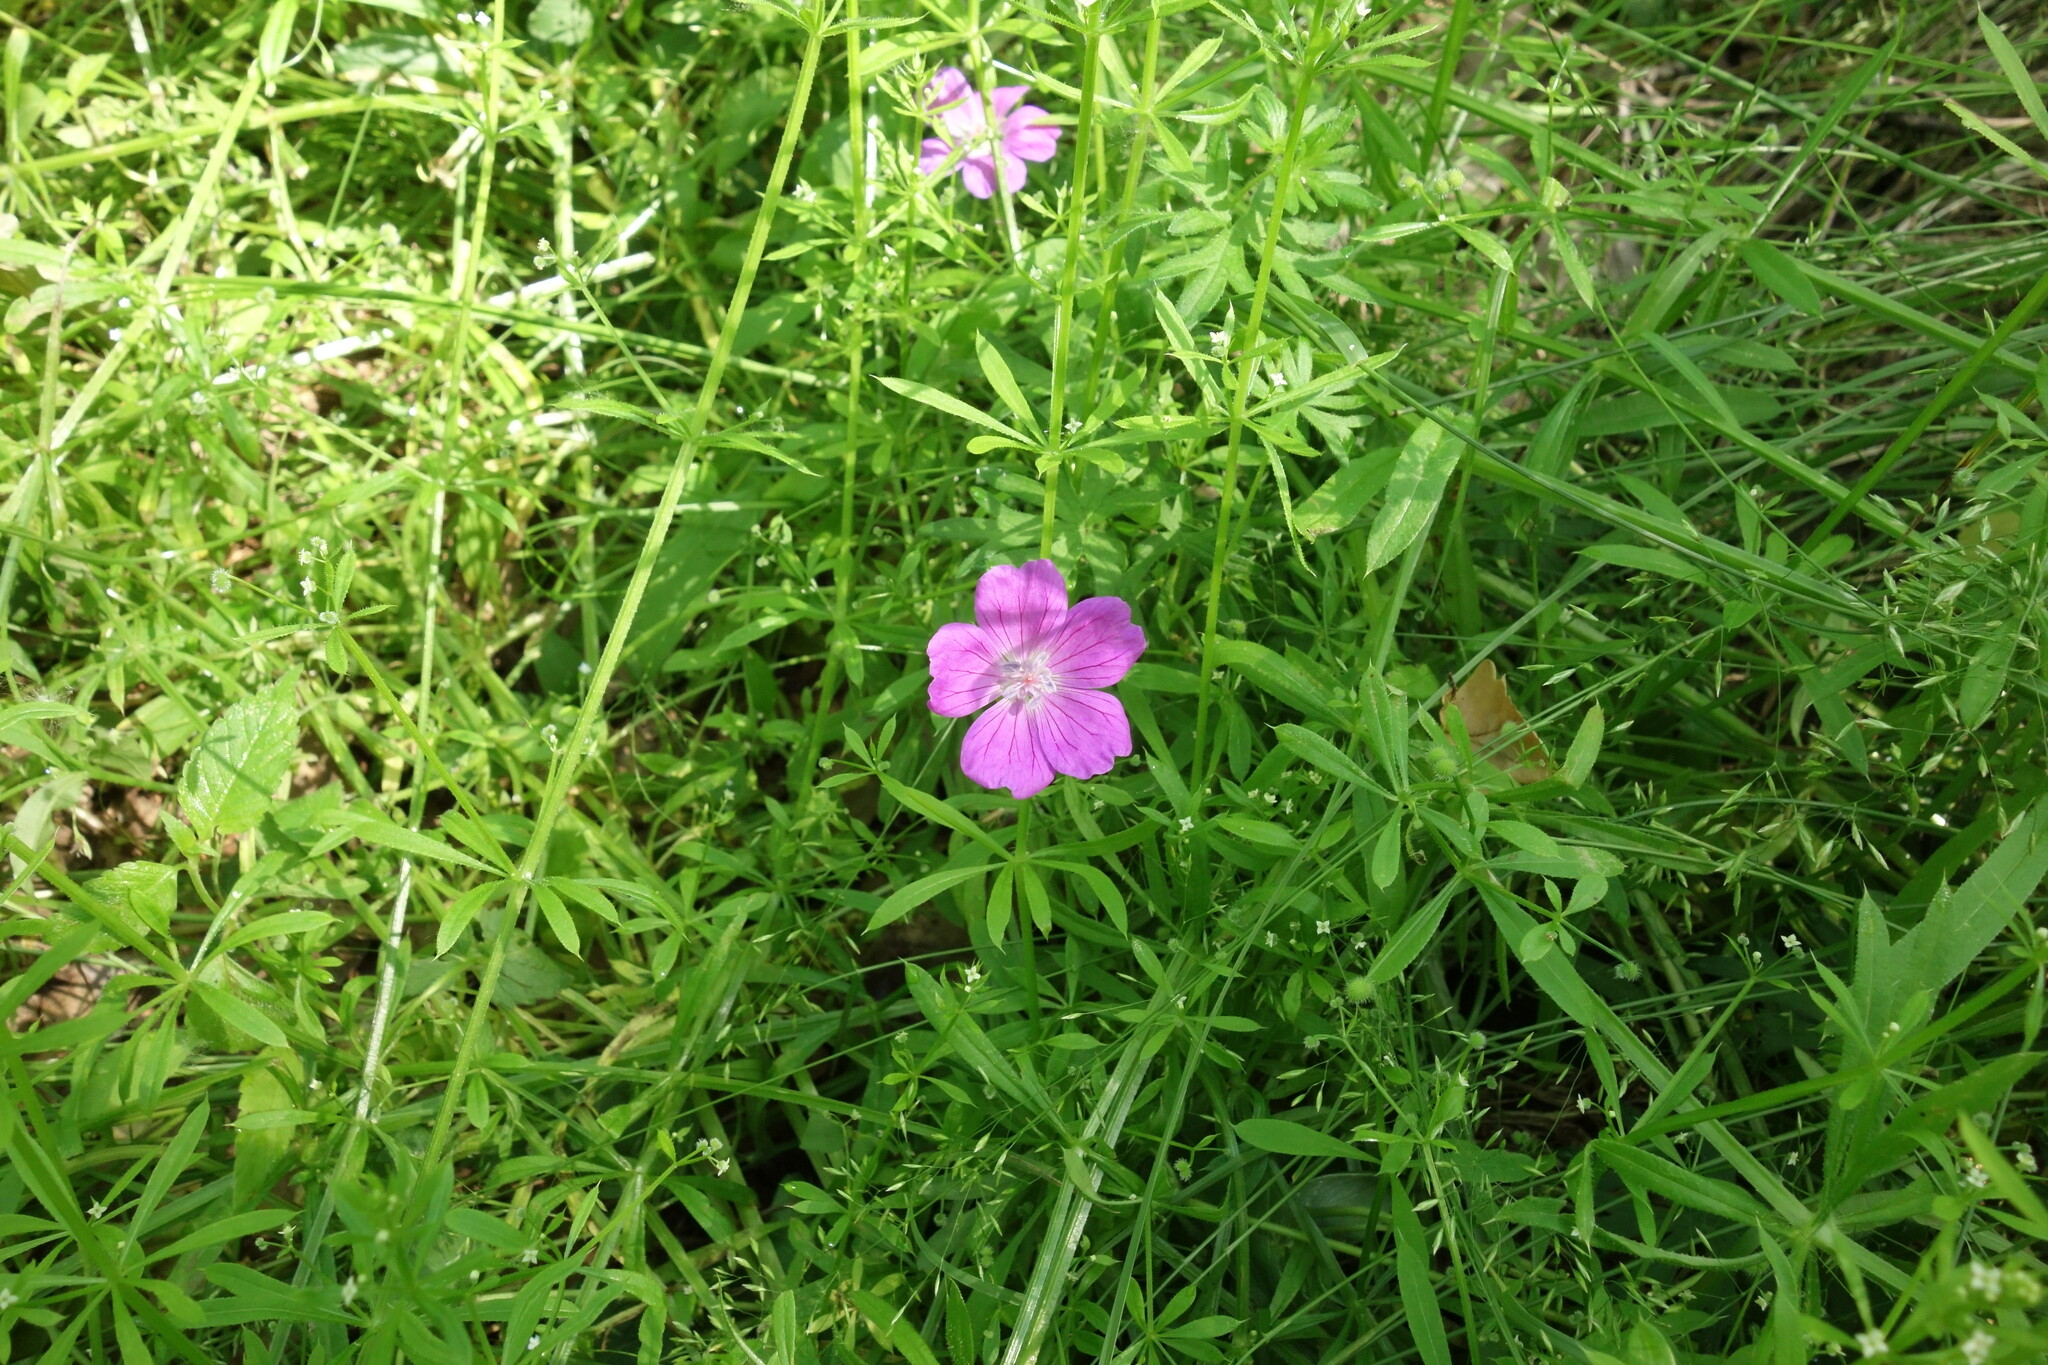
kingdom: Plantae
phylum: Tracheophyta
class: Magnoliopsida
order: Geraniales
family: Geraniaceae
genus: Geranium
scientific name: Geranium sanguineum
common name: Bloody crane's-bill
